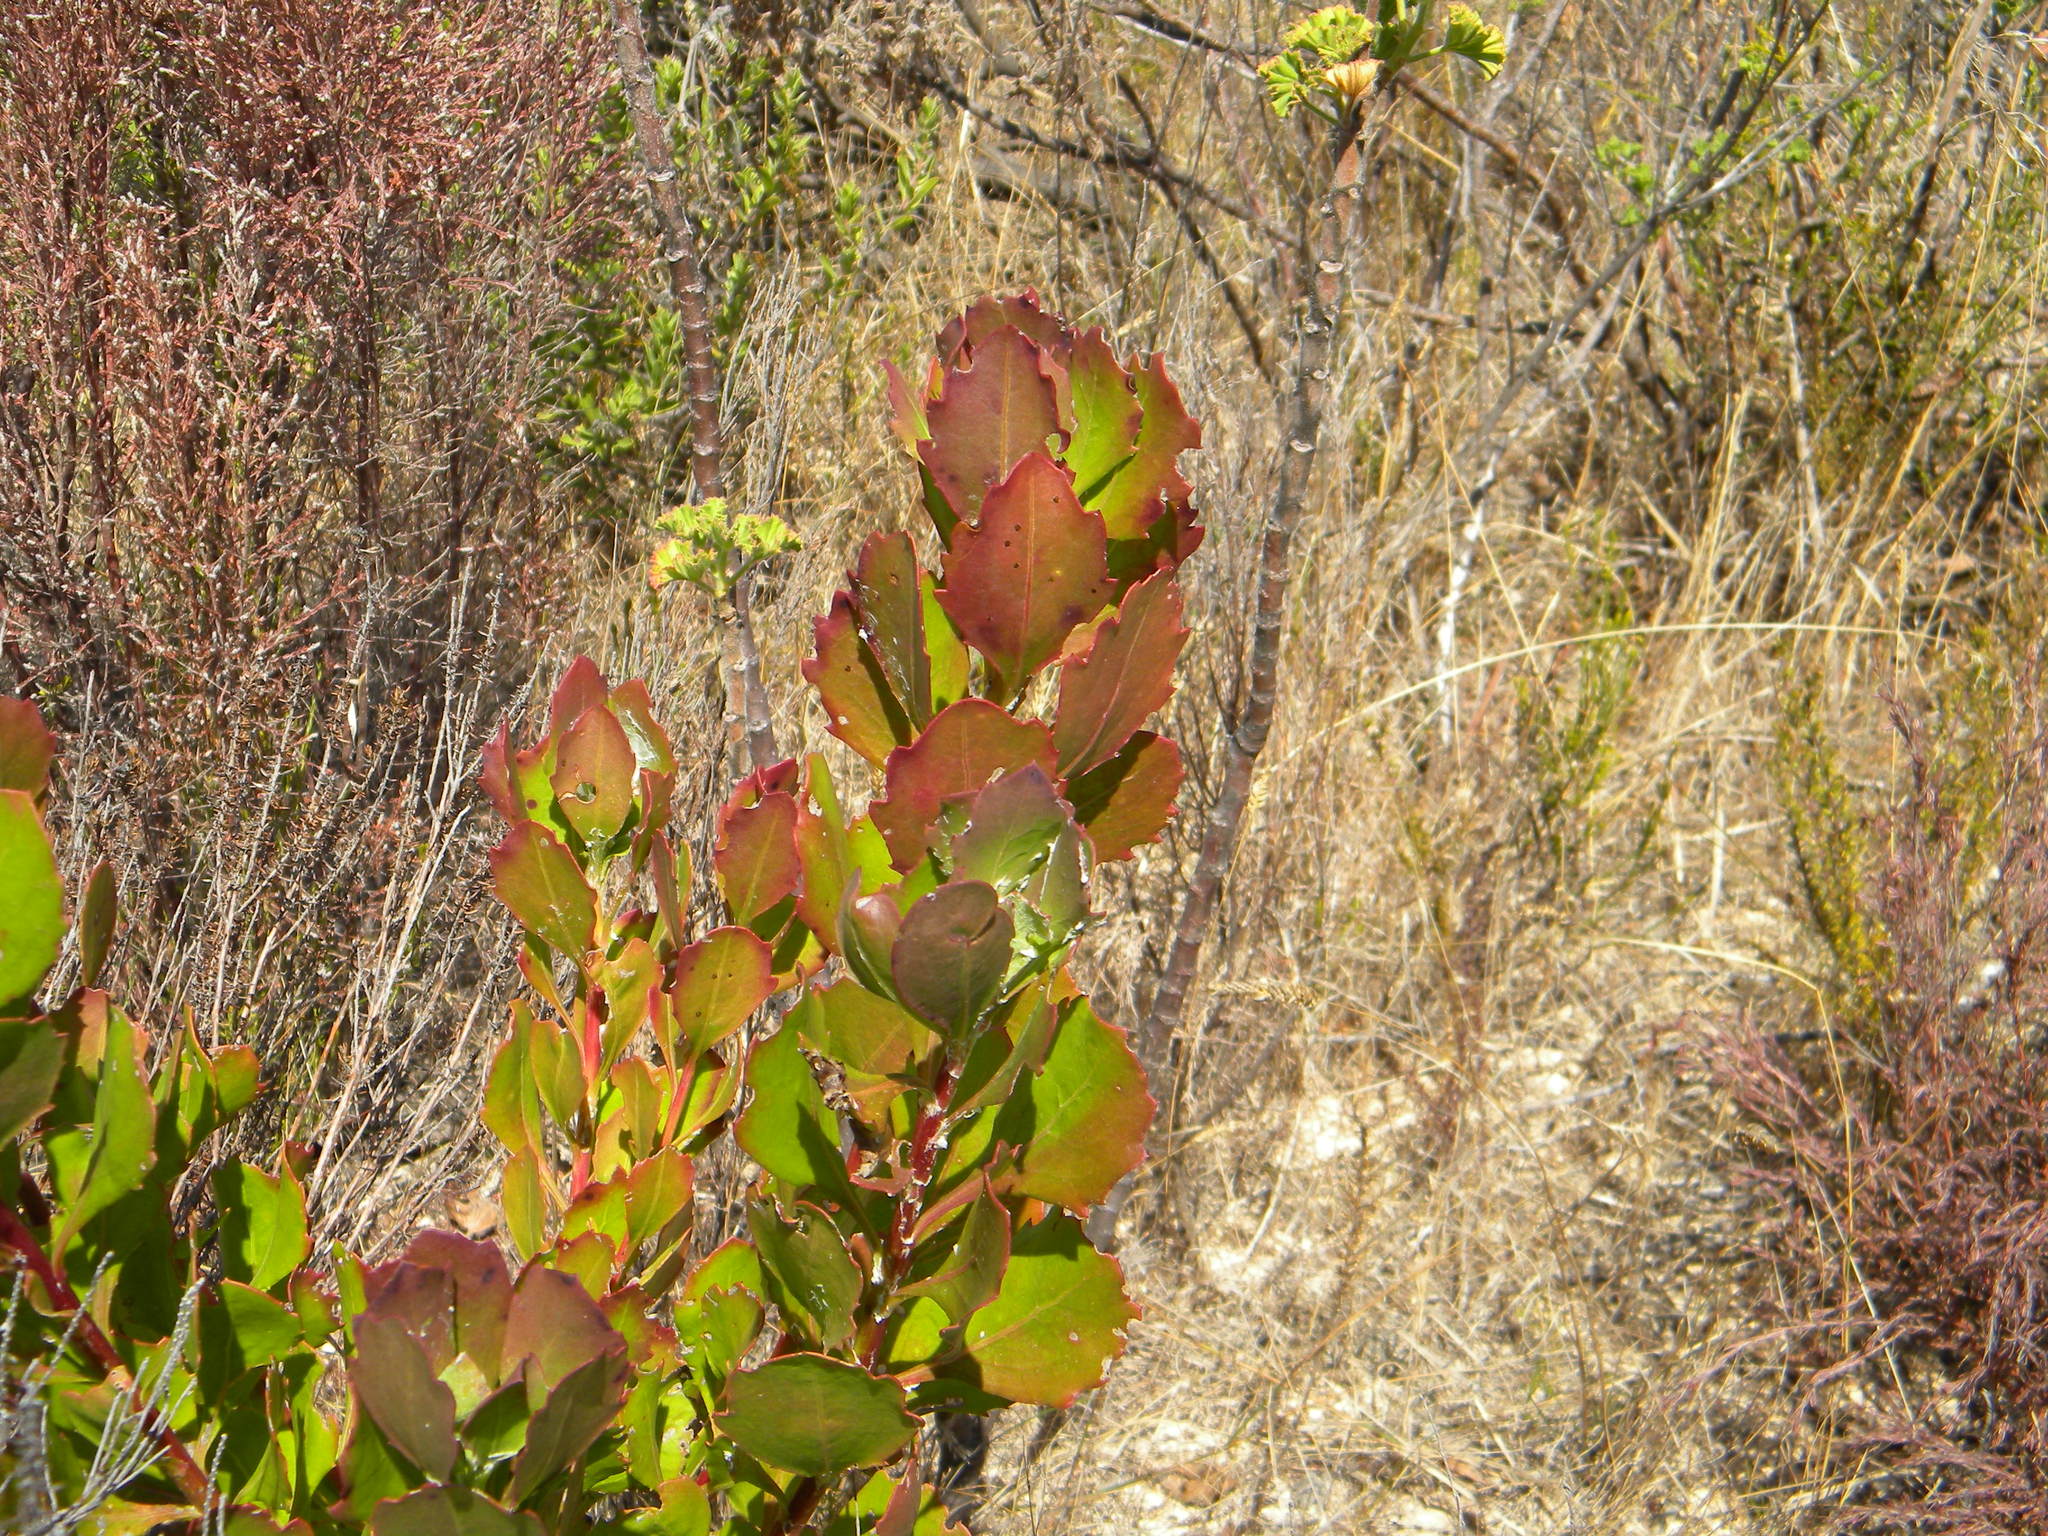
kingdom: Plantae
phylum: Tracheophyta
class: Magnoliopsida
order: Asterales
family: Asteraceae
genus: Osteospermum
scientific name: Osteospermum moniliferum
